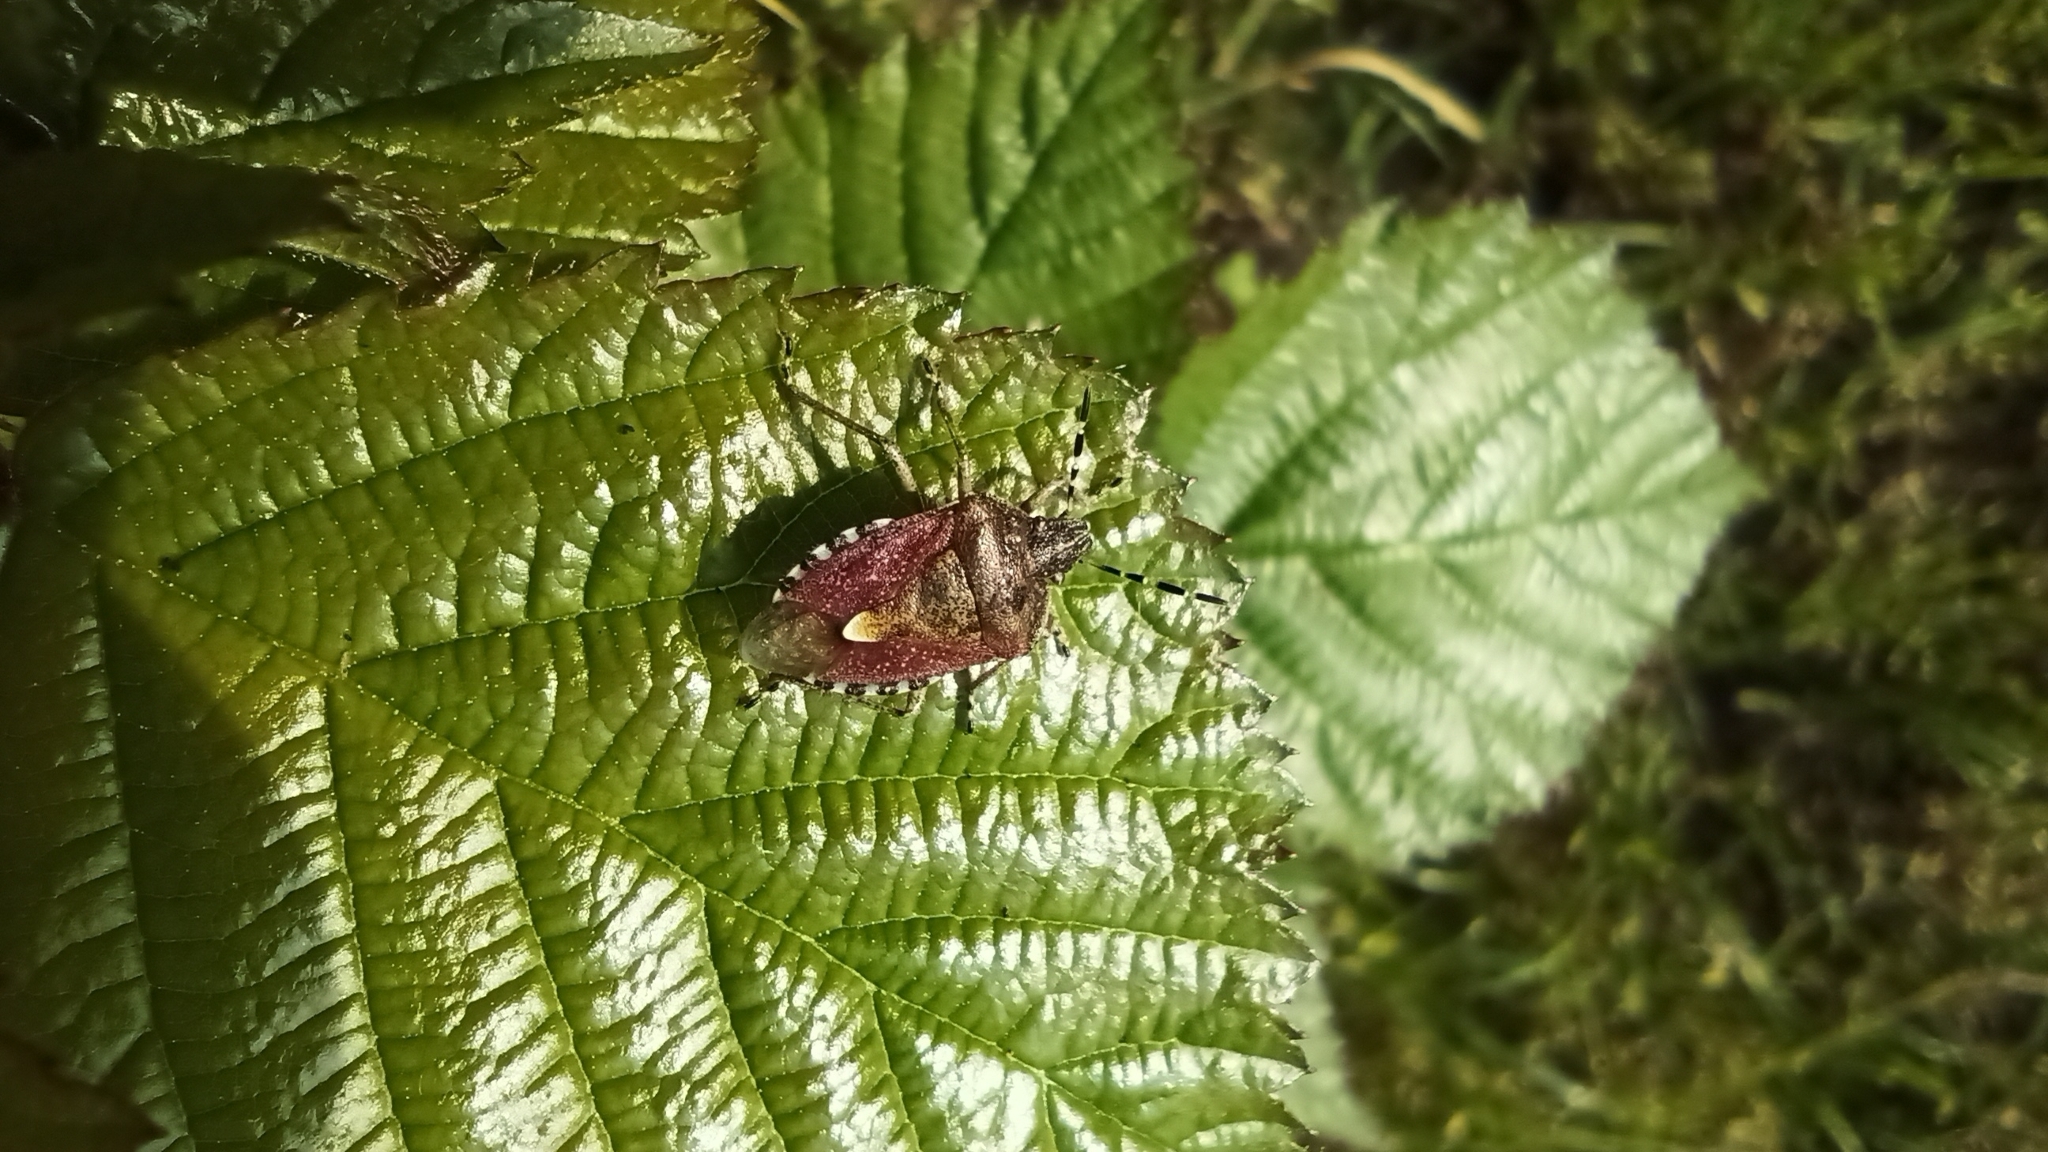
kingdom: Animalia
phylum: Arthropoda
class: Insecta
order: Hemiptera
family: Pentatomidae
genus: Dolycoris
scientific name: Dolycoris baccarum
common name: Sloe bug
